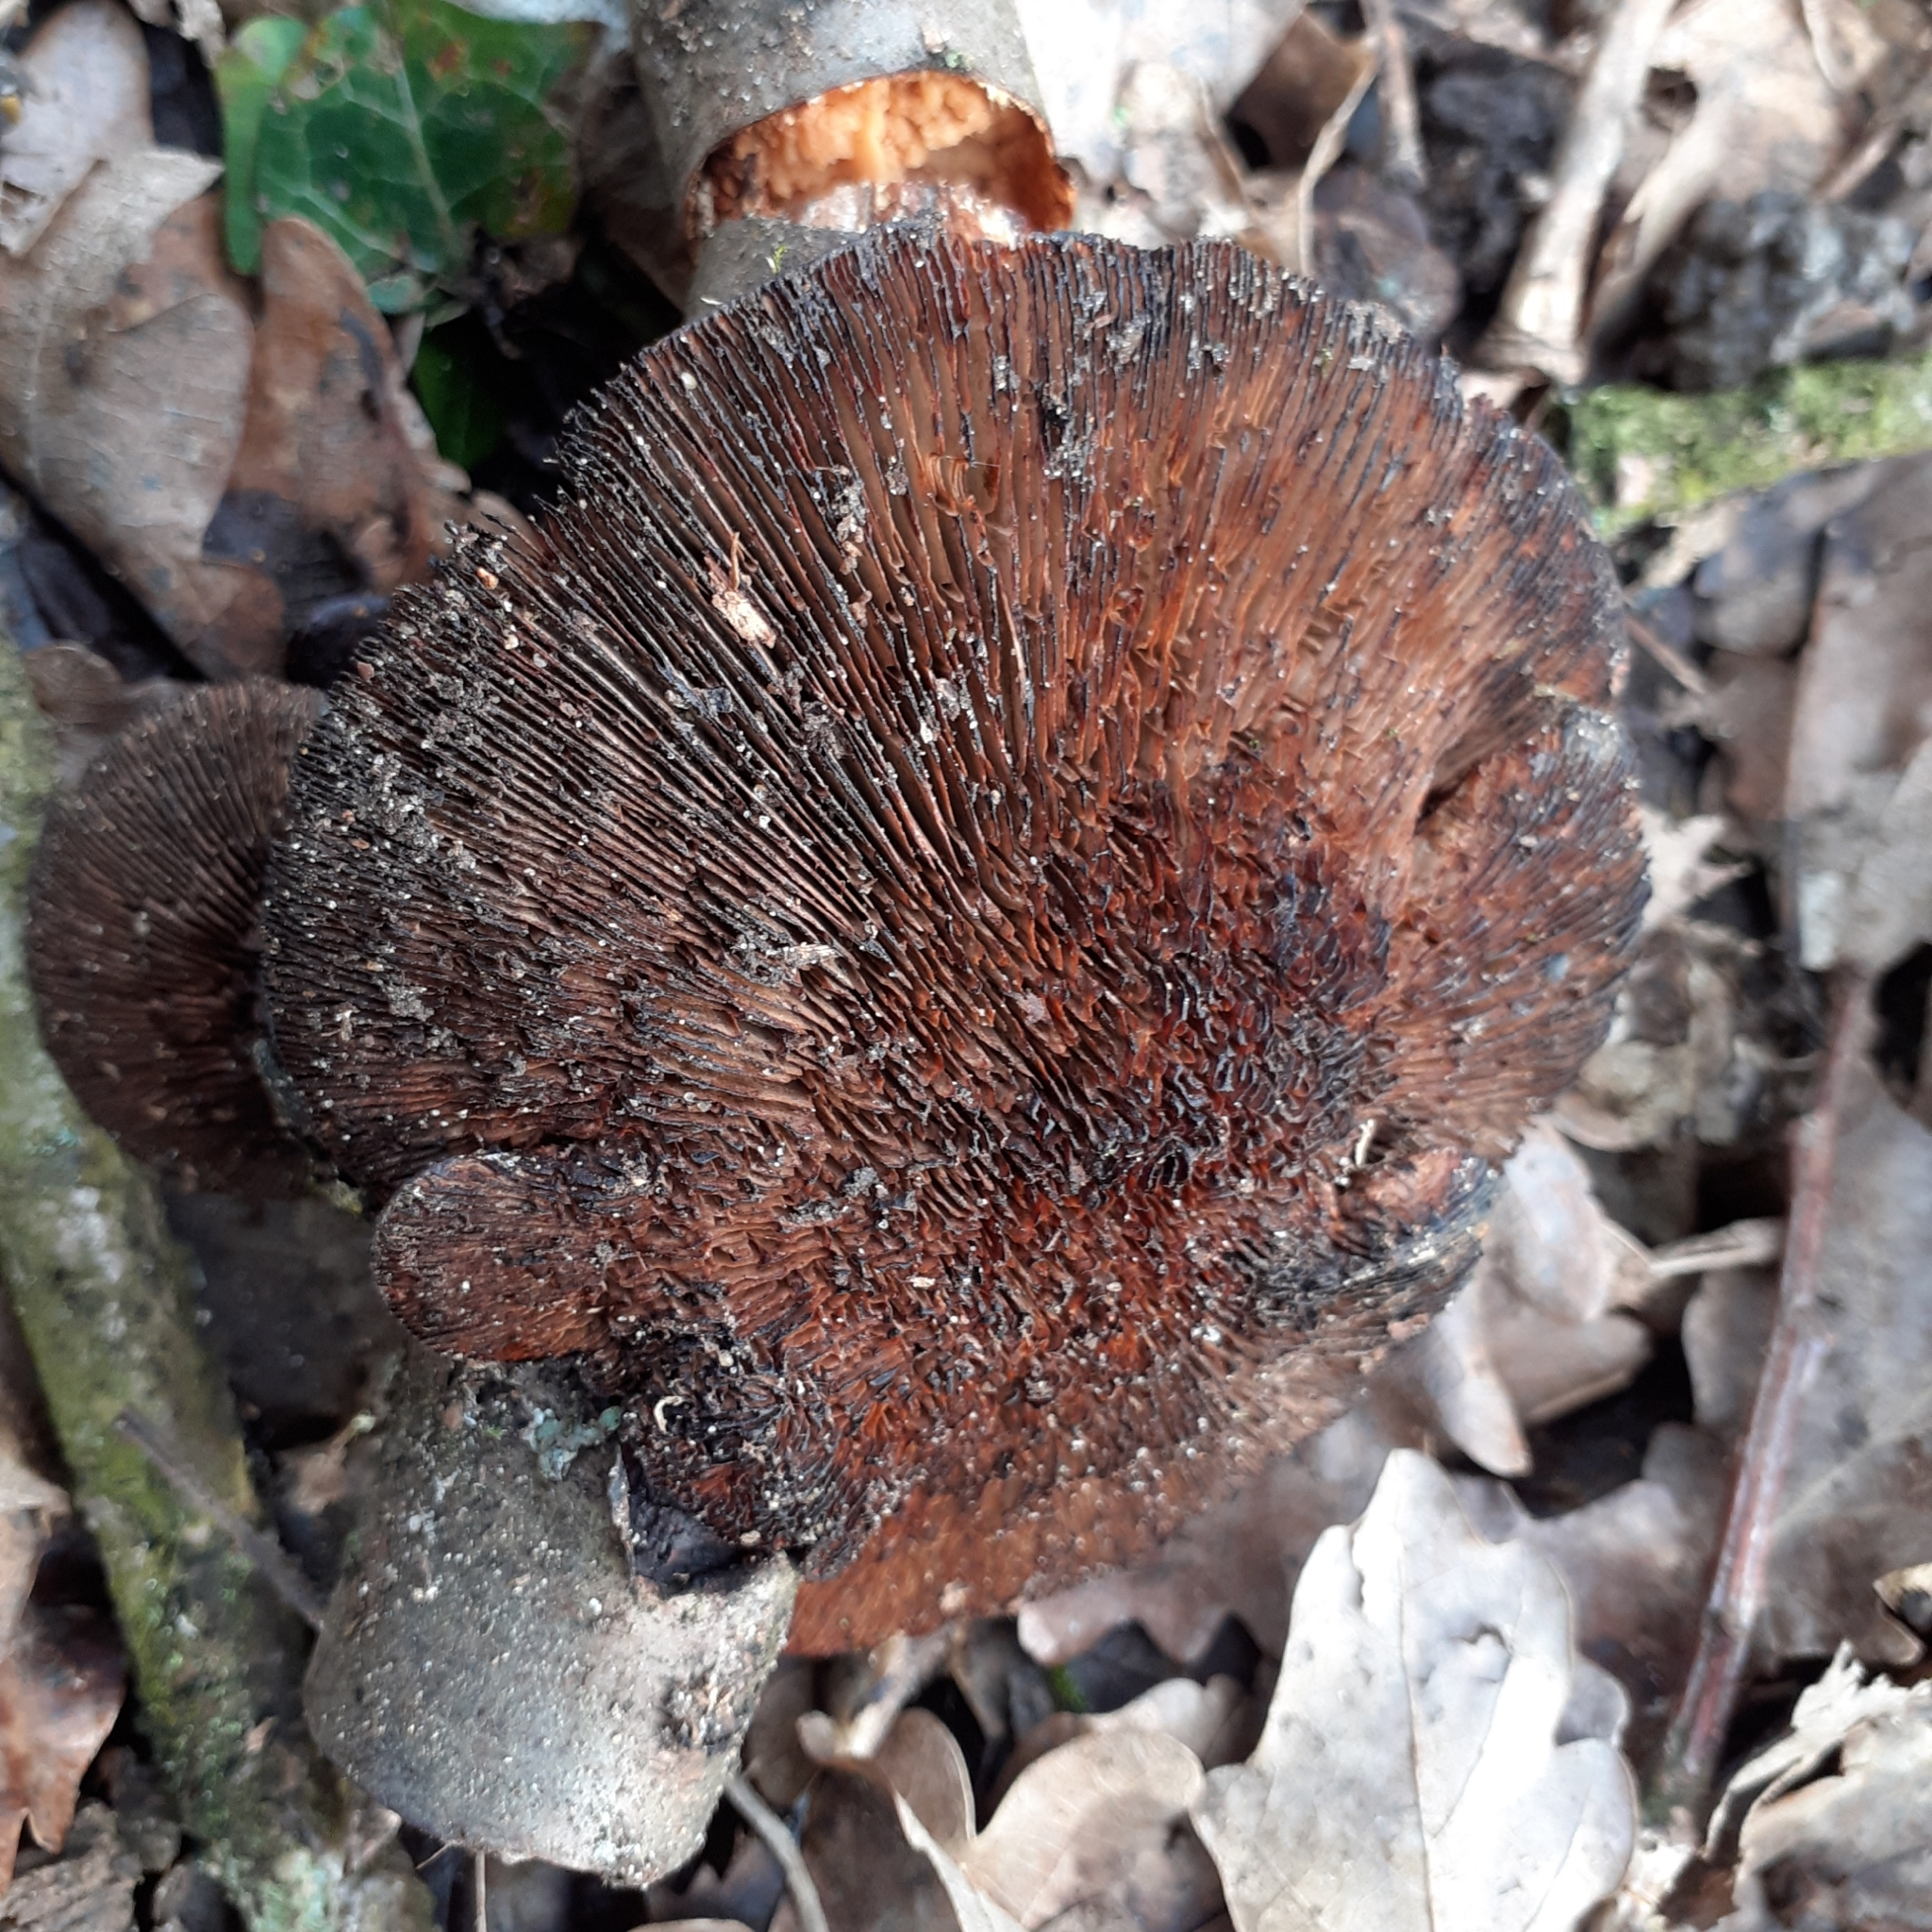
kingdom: Fungi
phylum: Basidiomycota
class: Agaricomycetes
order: Polyporales
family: Polyporaceae
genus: Daedaleopsis
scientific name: Daedaleopsis tricolor
